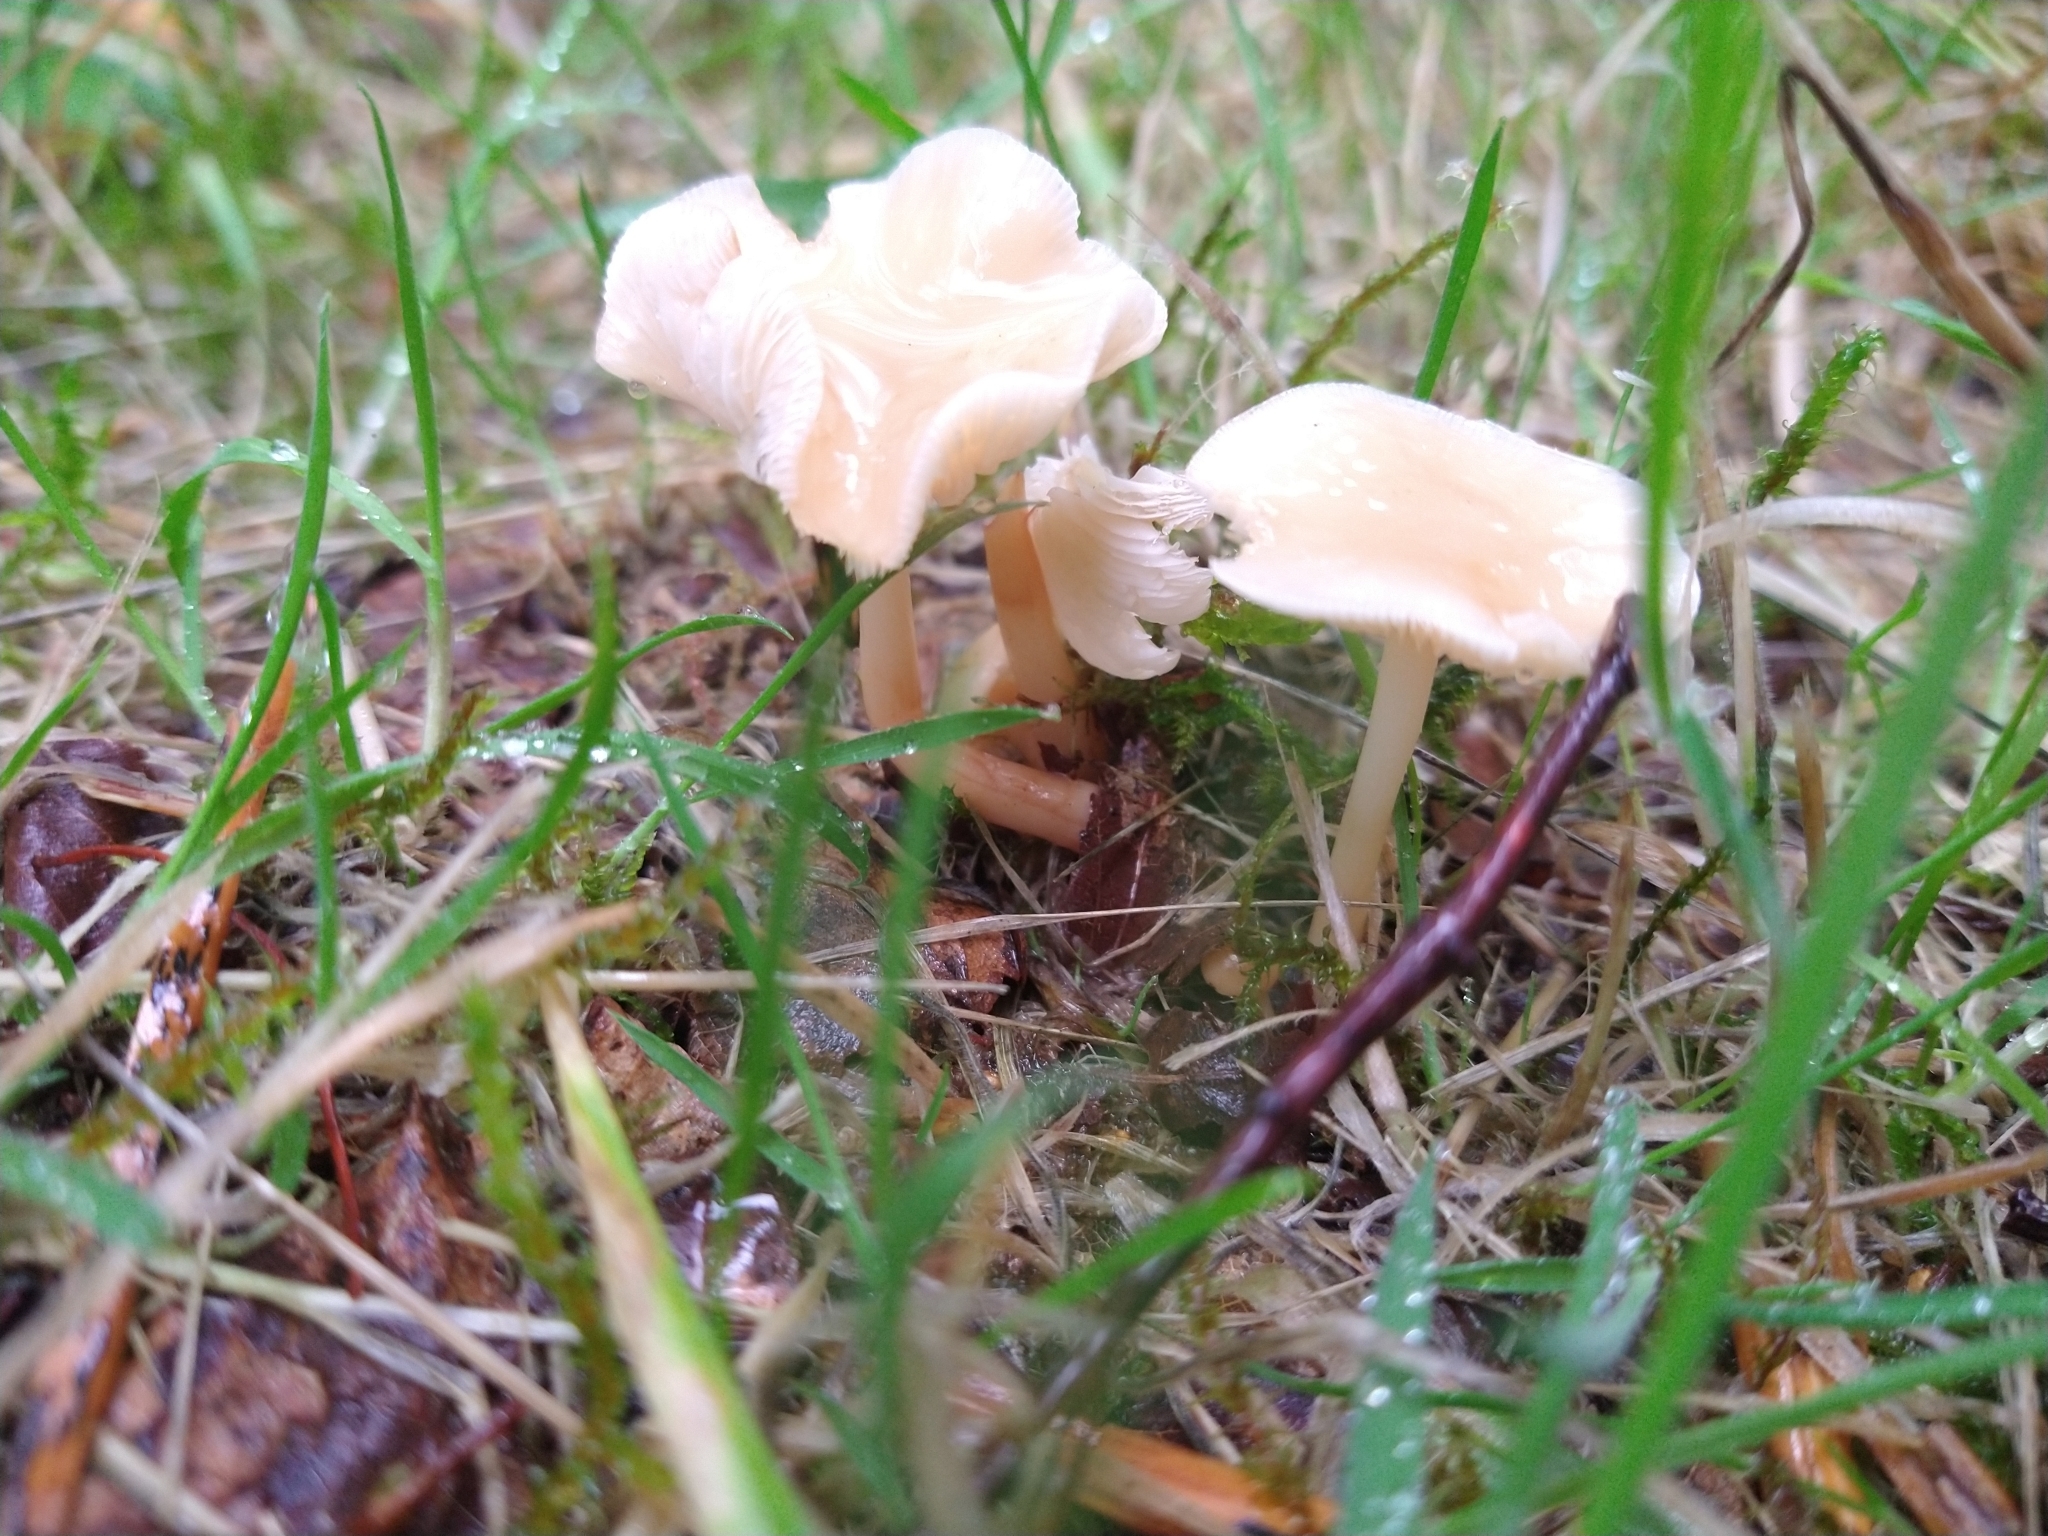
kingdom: Fungi
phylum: Basidiomycota
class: Agaricomycetes
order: Agaricales
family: Psathyrellaceae
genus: Candolleomyces
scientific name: Candolleomyces candolleanus
